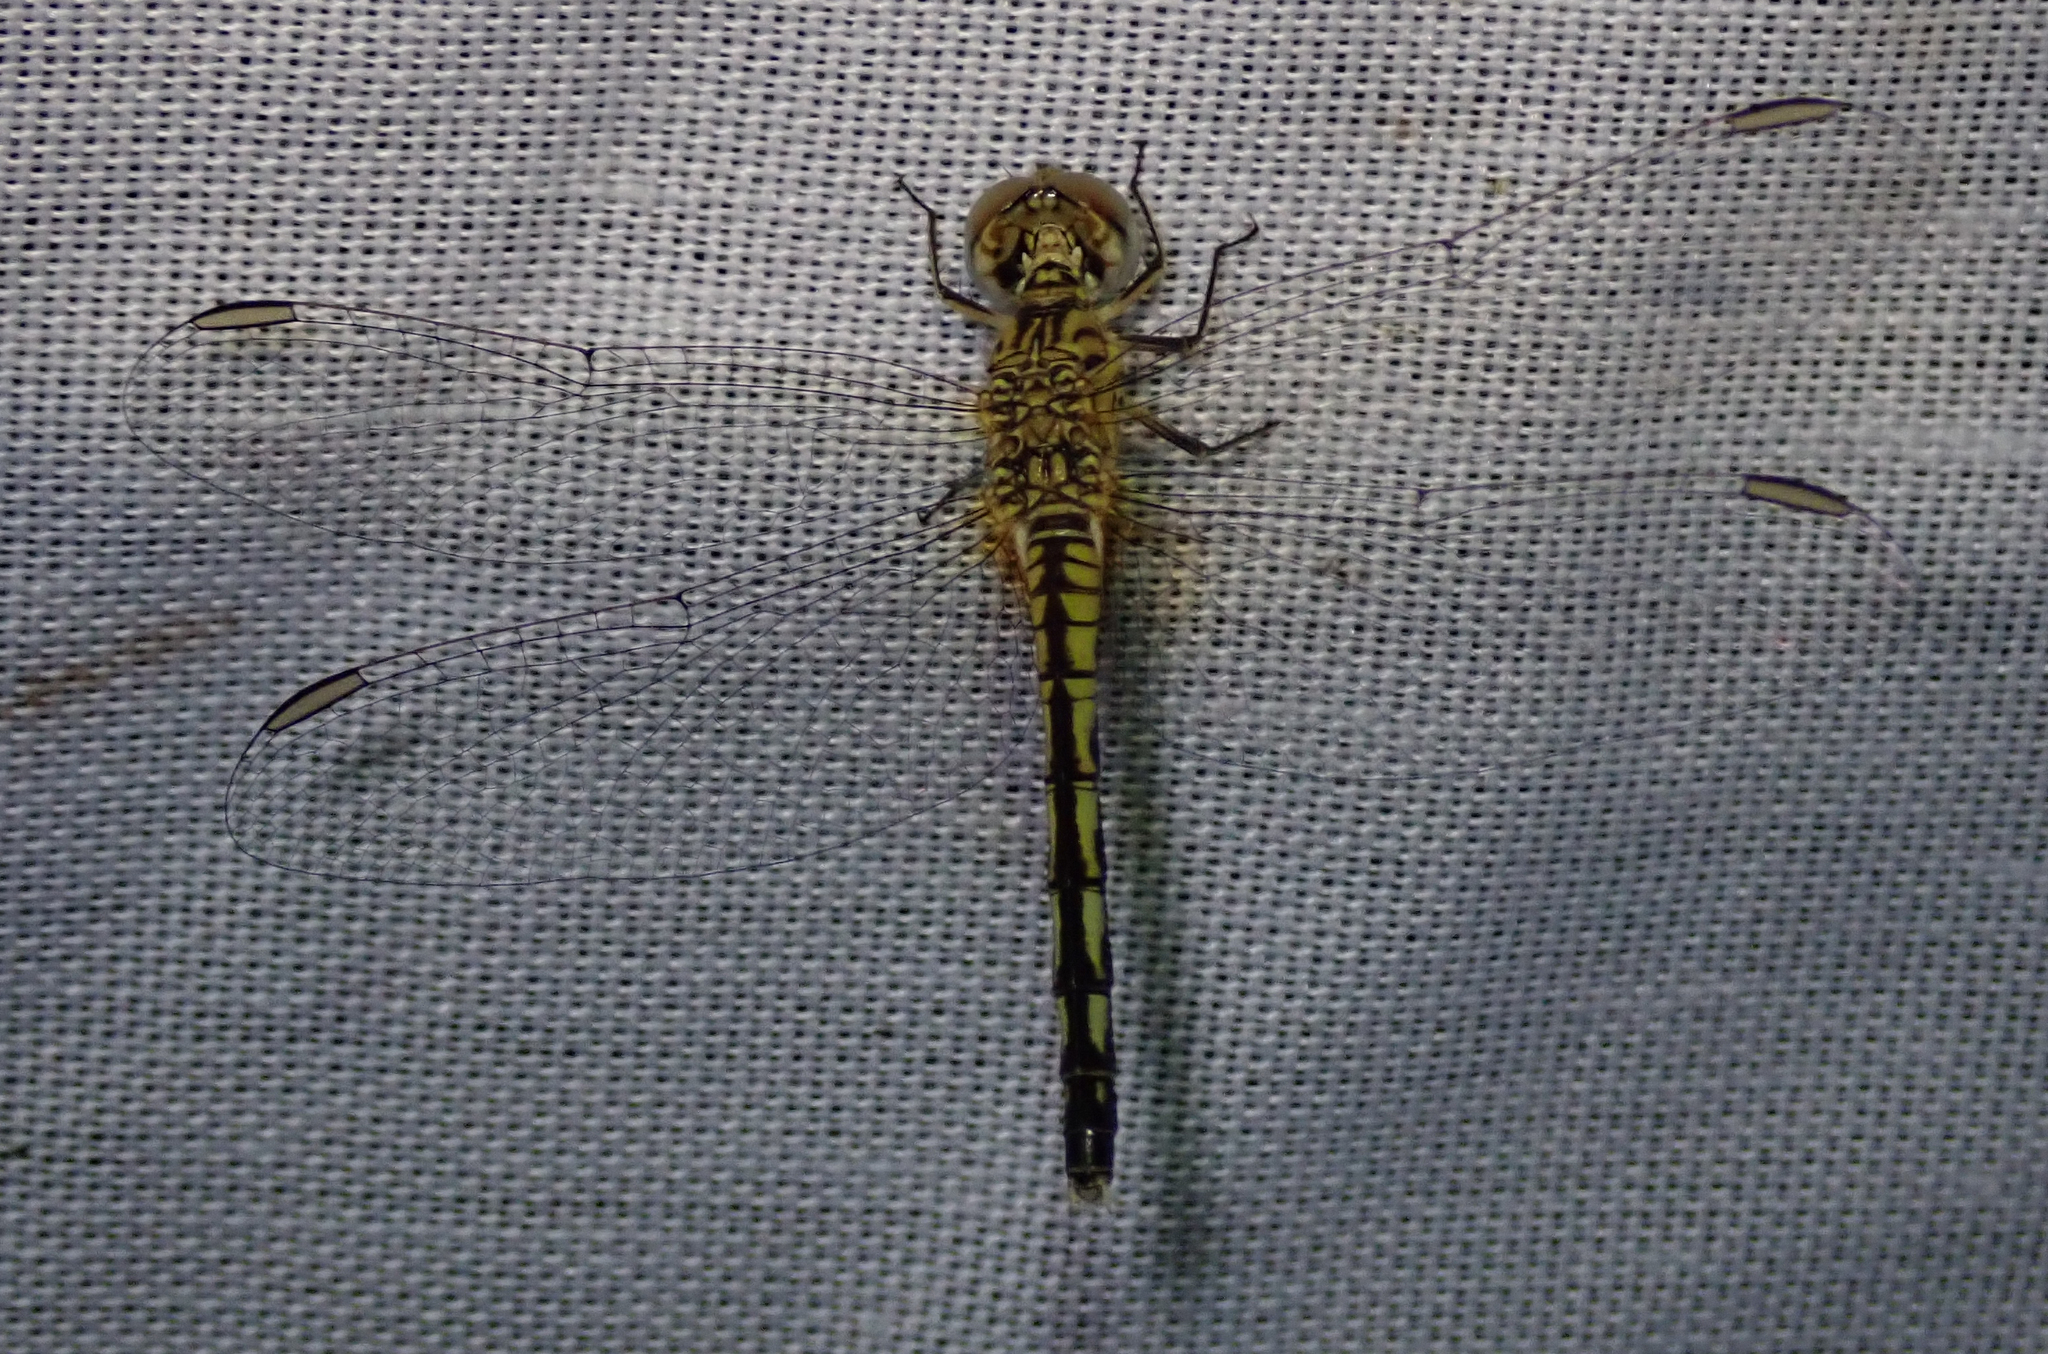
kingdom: Animalia
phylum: Arthropoda
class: Insecta
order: Odonata
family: Libellulidae
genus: Diplacodes
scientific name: Diplacodes lefebvrii
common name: Black percher
